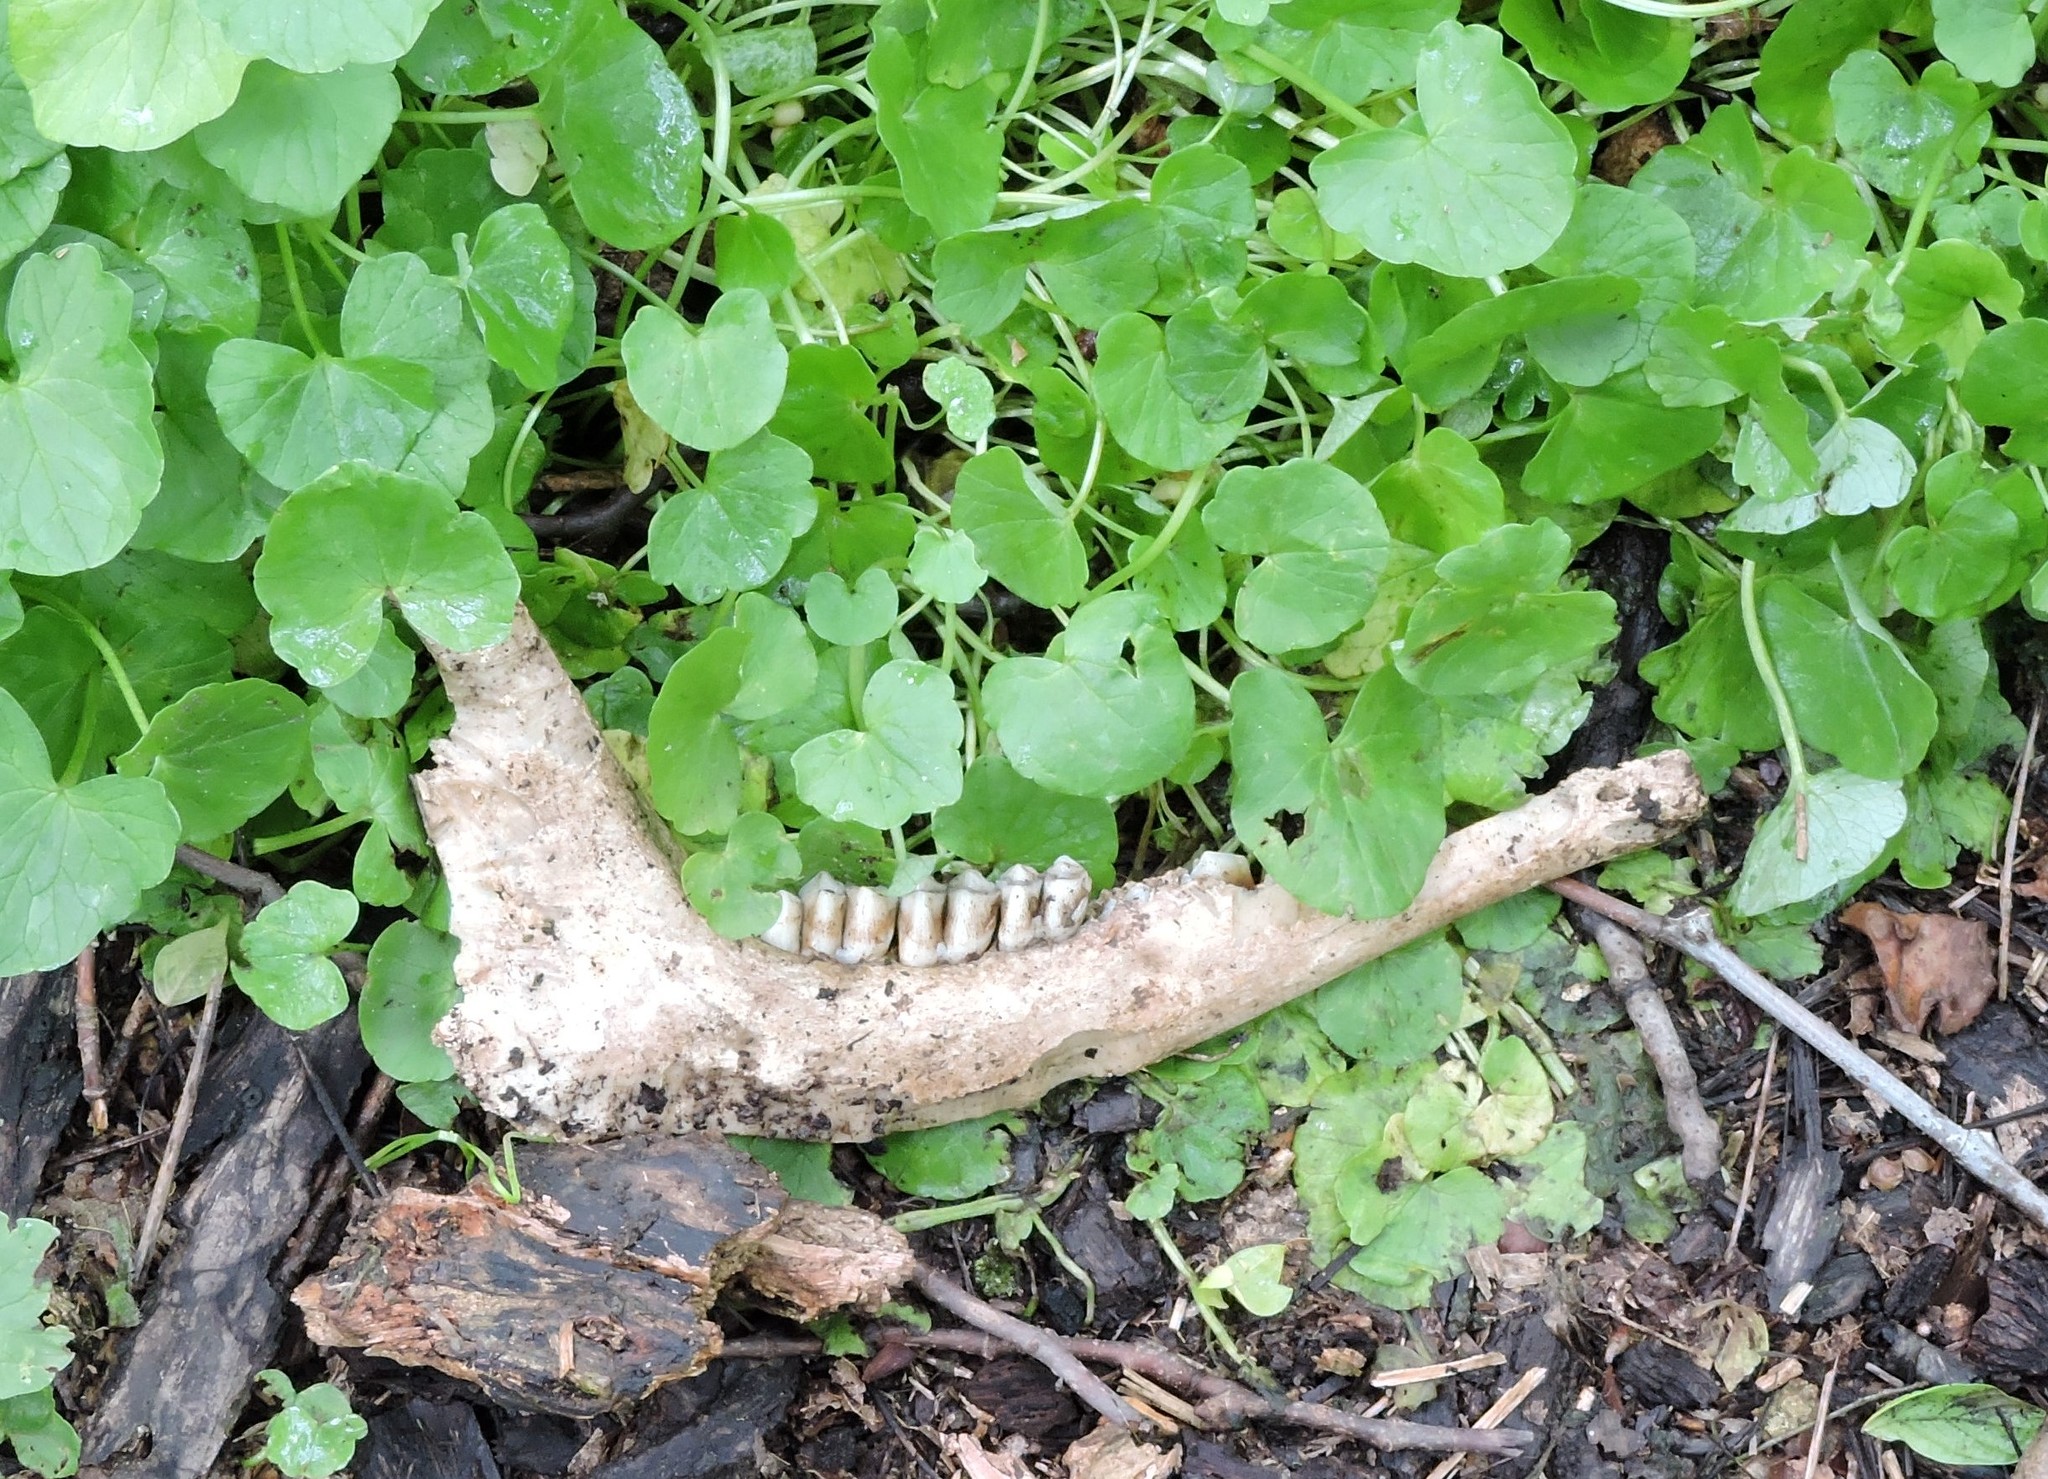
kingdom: Animalia
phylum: Chordata
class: Mammalia
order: Artiodactyla
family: Cervidae
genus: Odocoileus
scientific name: Odocoileus virginianus
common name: White-tailed deer
